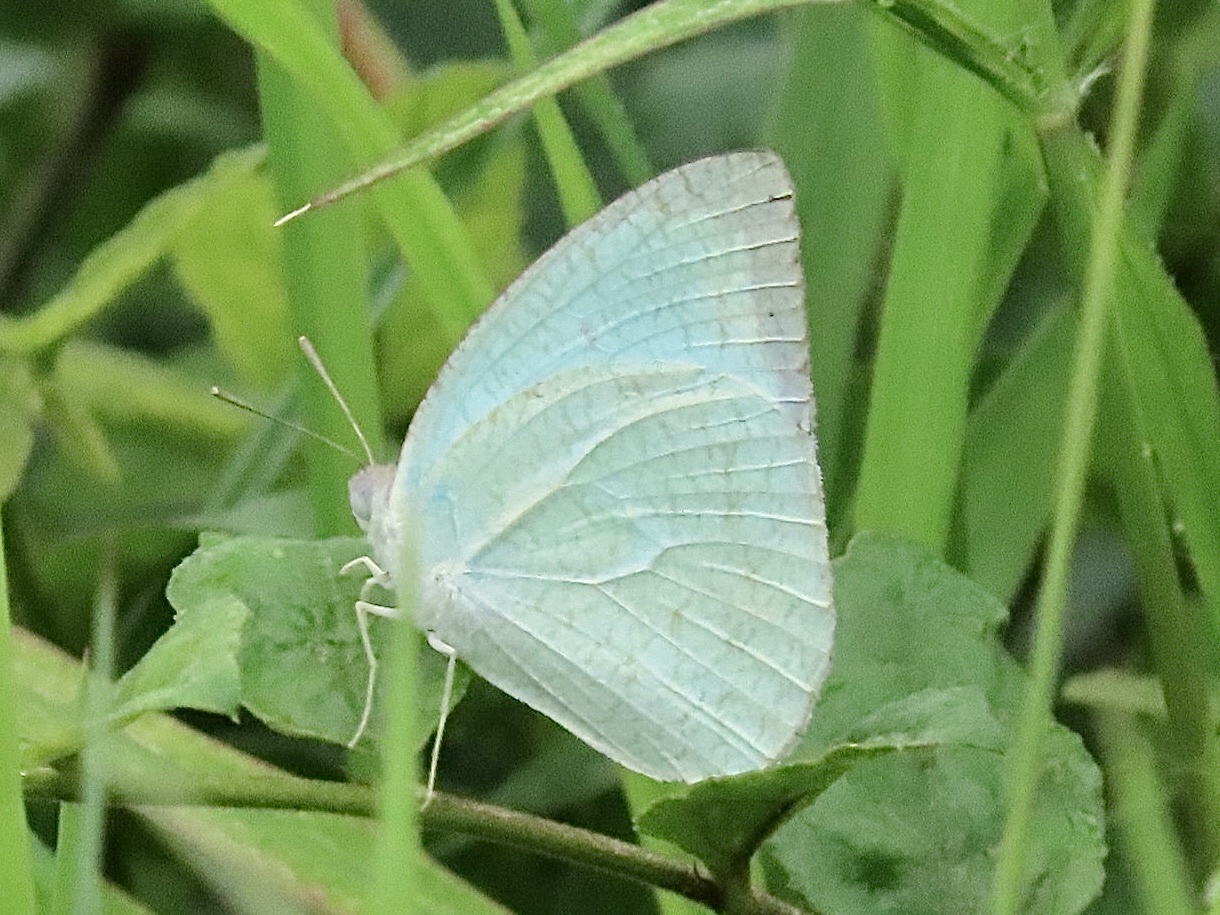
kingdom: Animalia
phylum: Arthropoda
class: Insecta
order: Lepidoptera
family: Pieridae
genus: Catopsilia
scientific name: Catopsilia pyranthe
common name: Mottled emigrant
